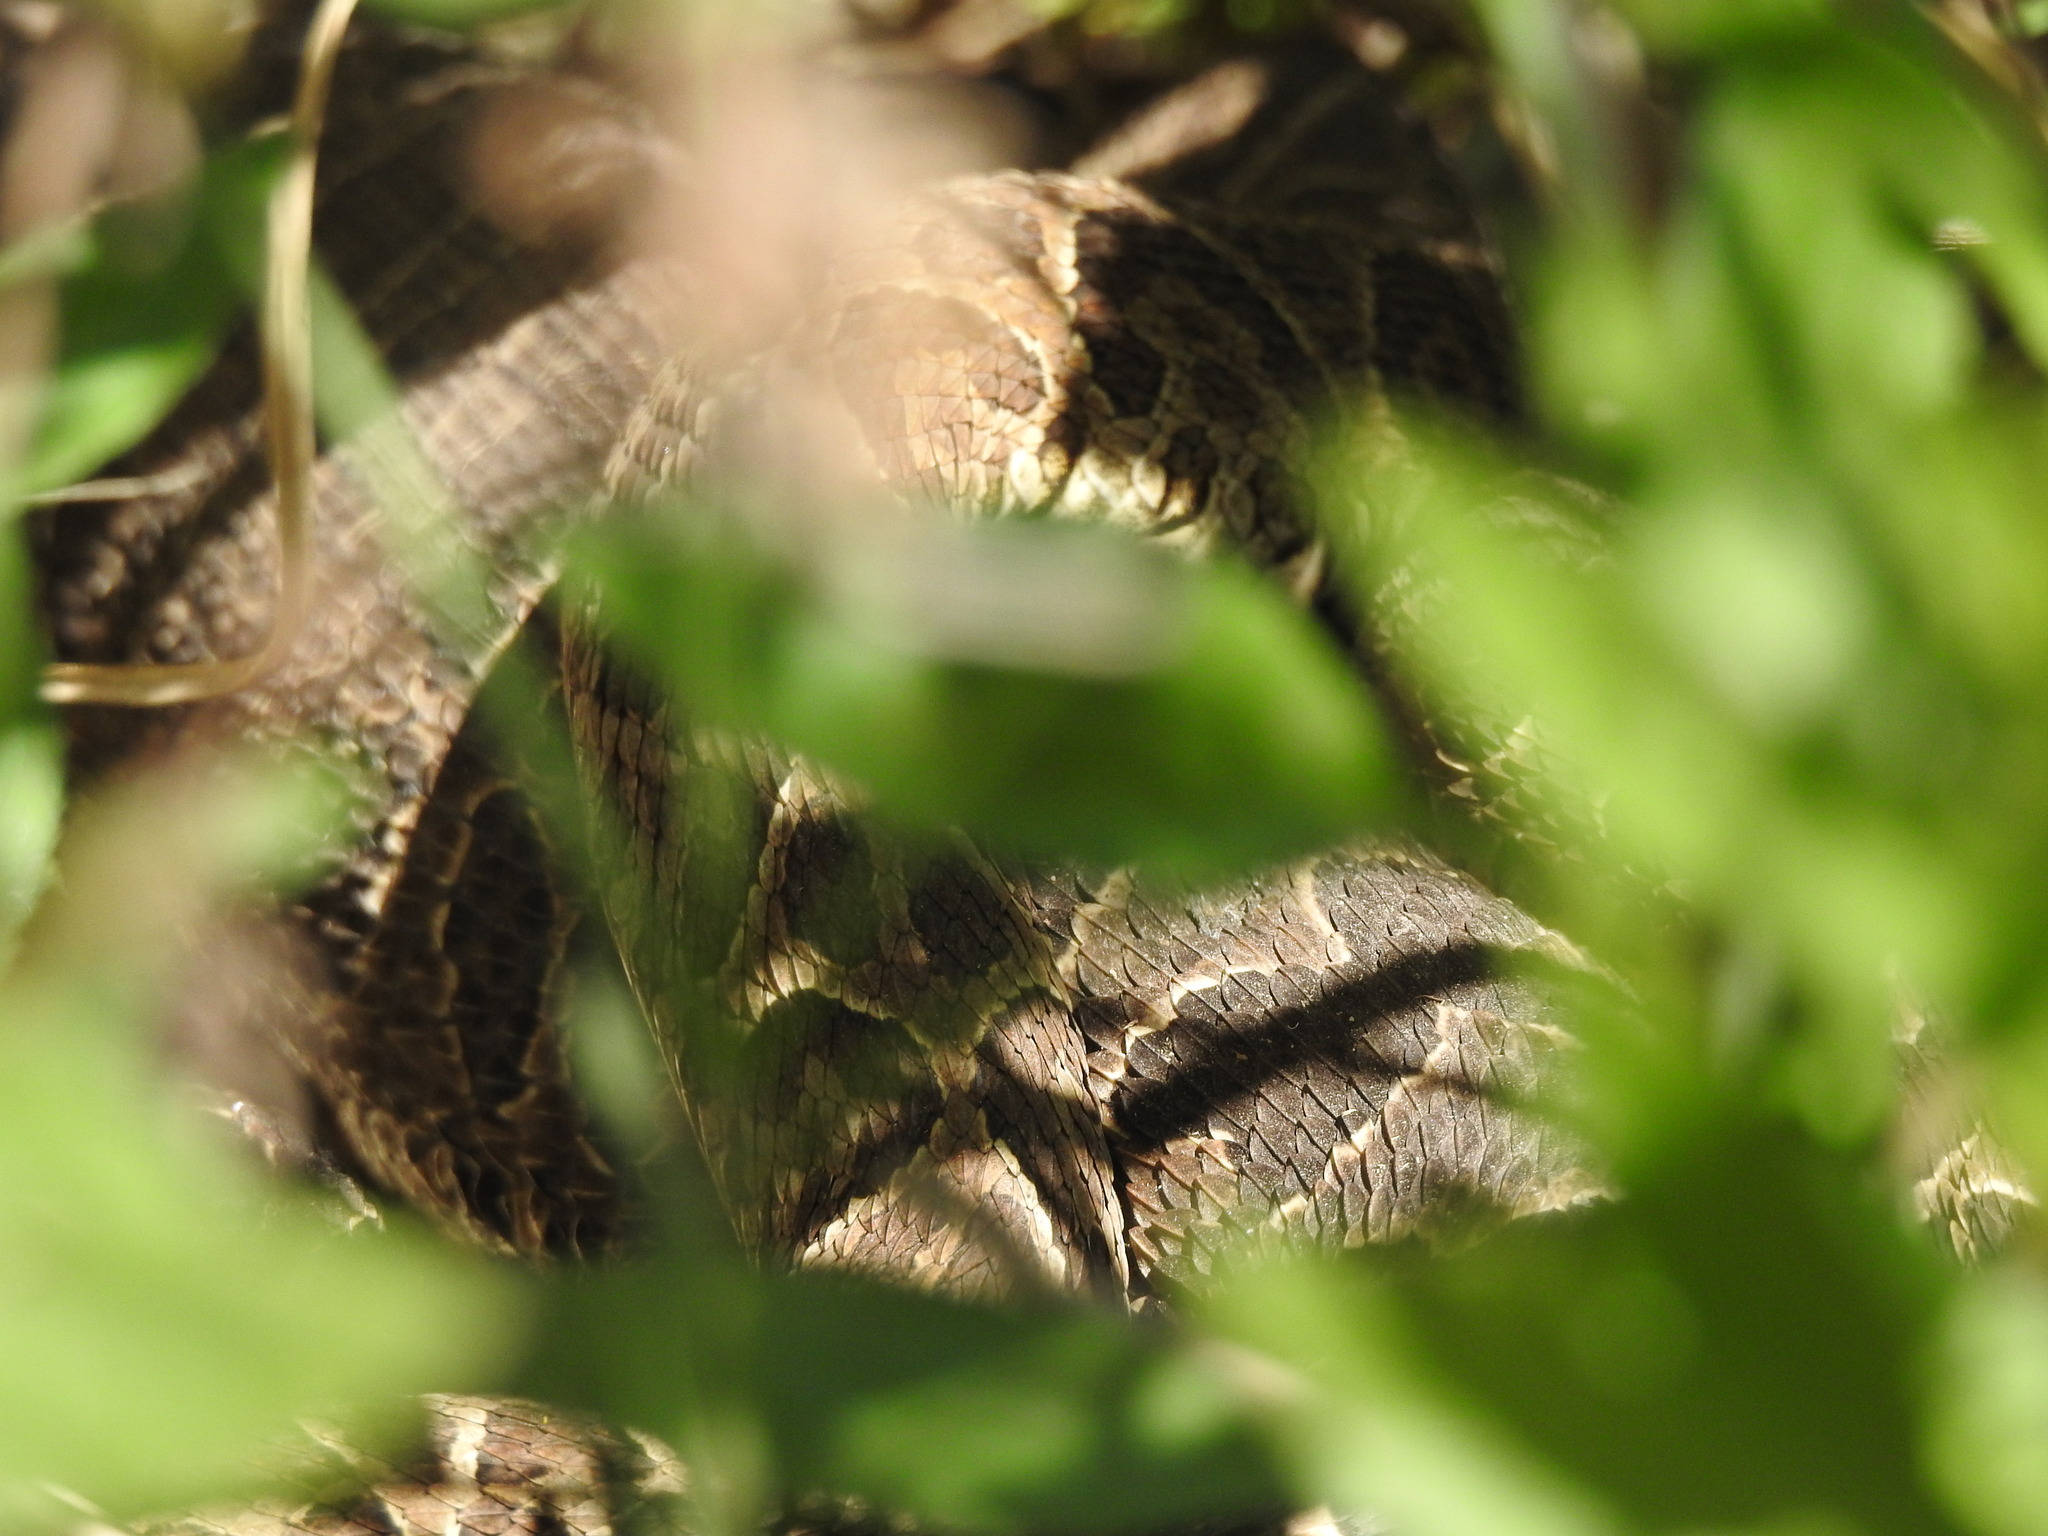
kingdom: Animalia
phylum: Chordata
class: Squamata
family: Viperidae
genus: Bothrops
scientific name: Bothrops alternatus
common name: Urutu
